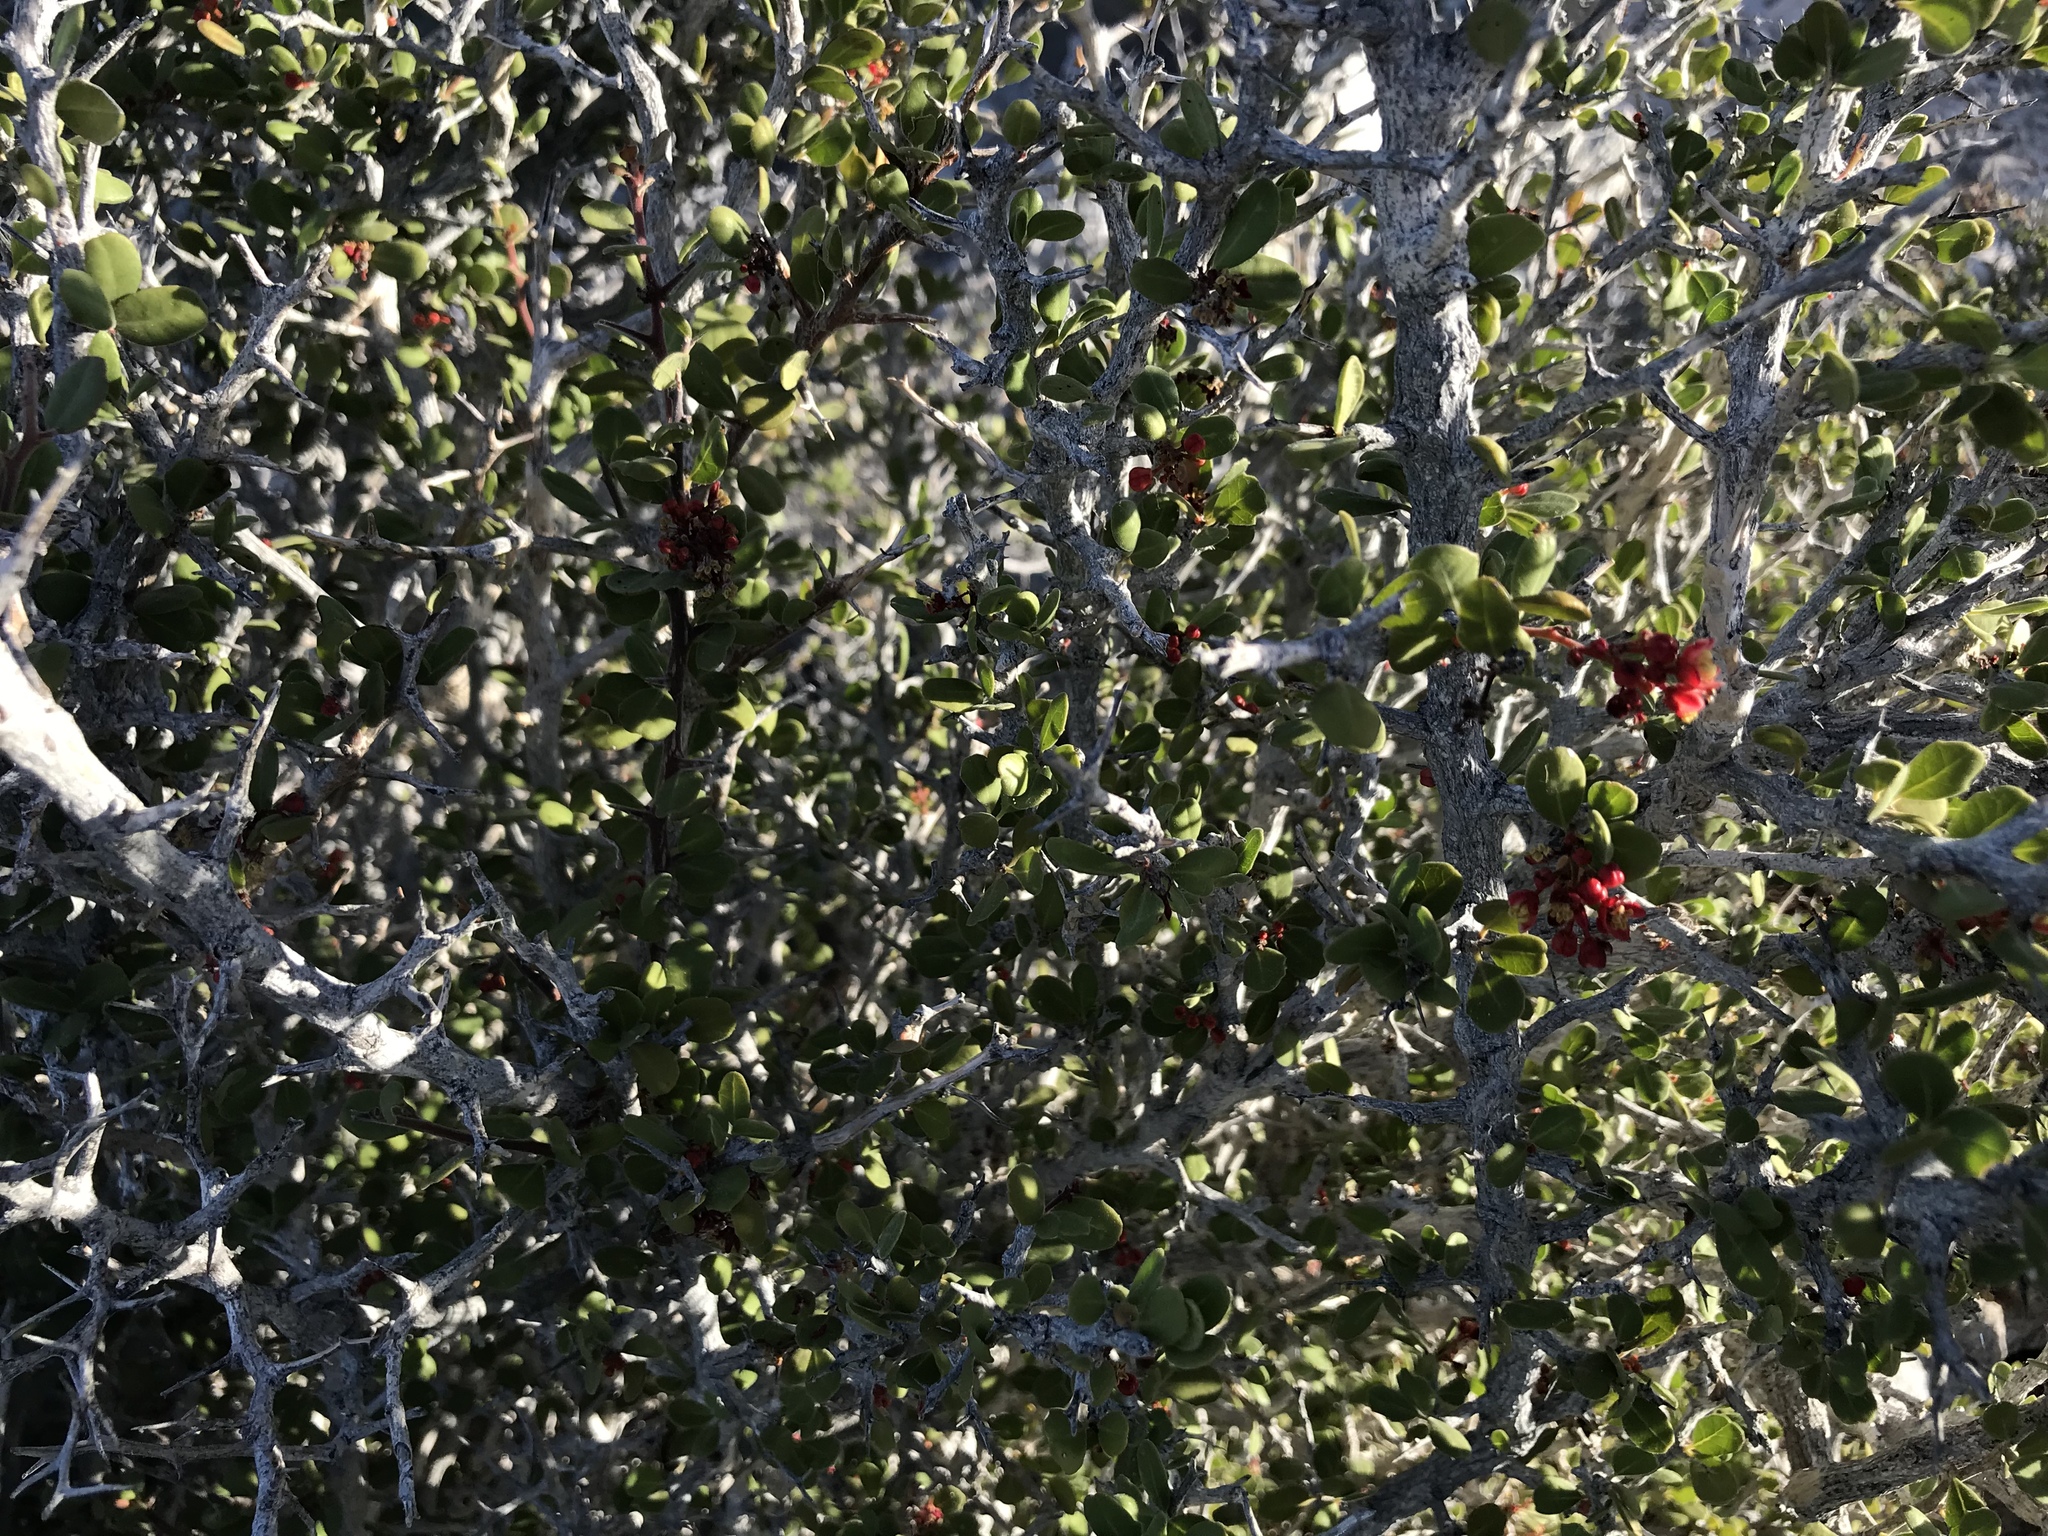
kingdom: Plantae
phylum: Tracheophyta
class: Magnoliopsida
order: Sapindales
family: Simaroubaceae
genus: Castela
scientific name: Castela peninsularis
